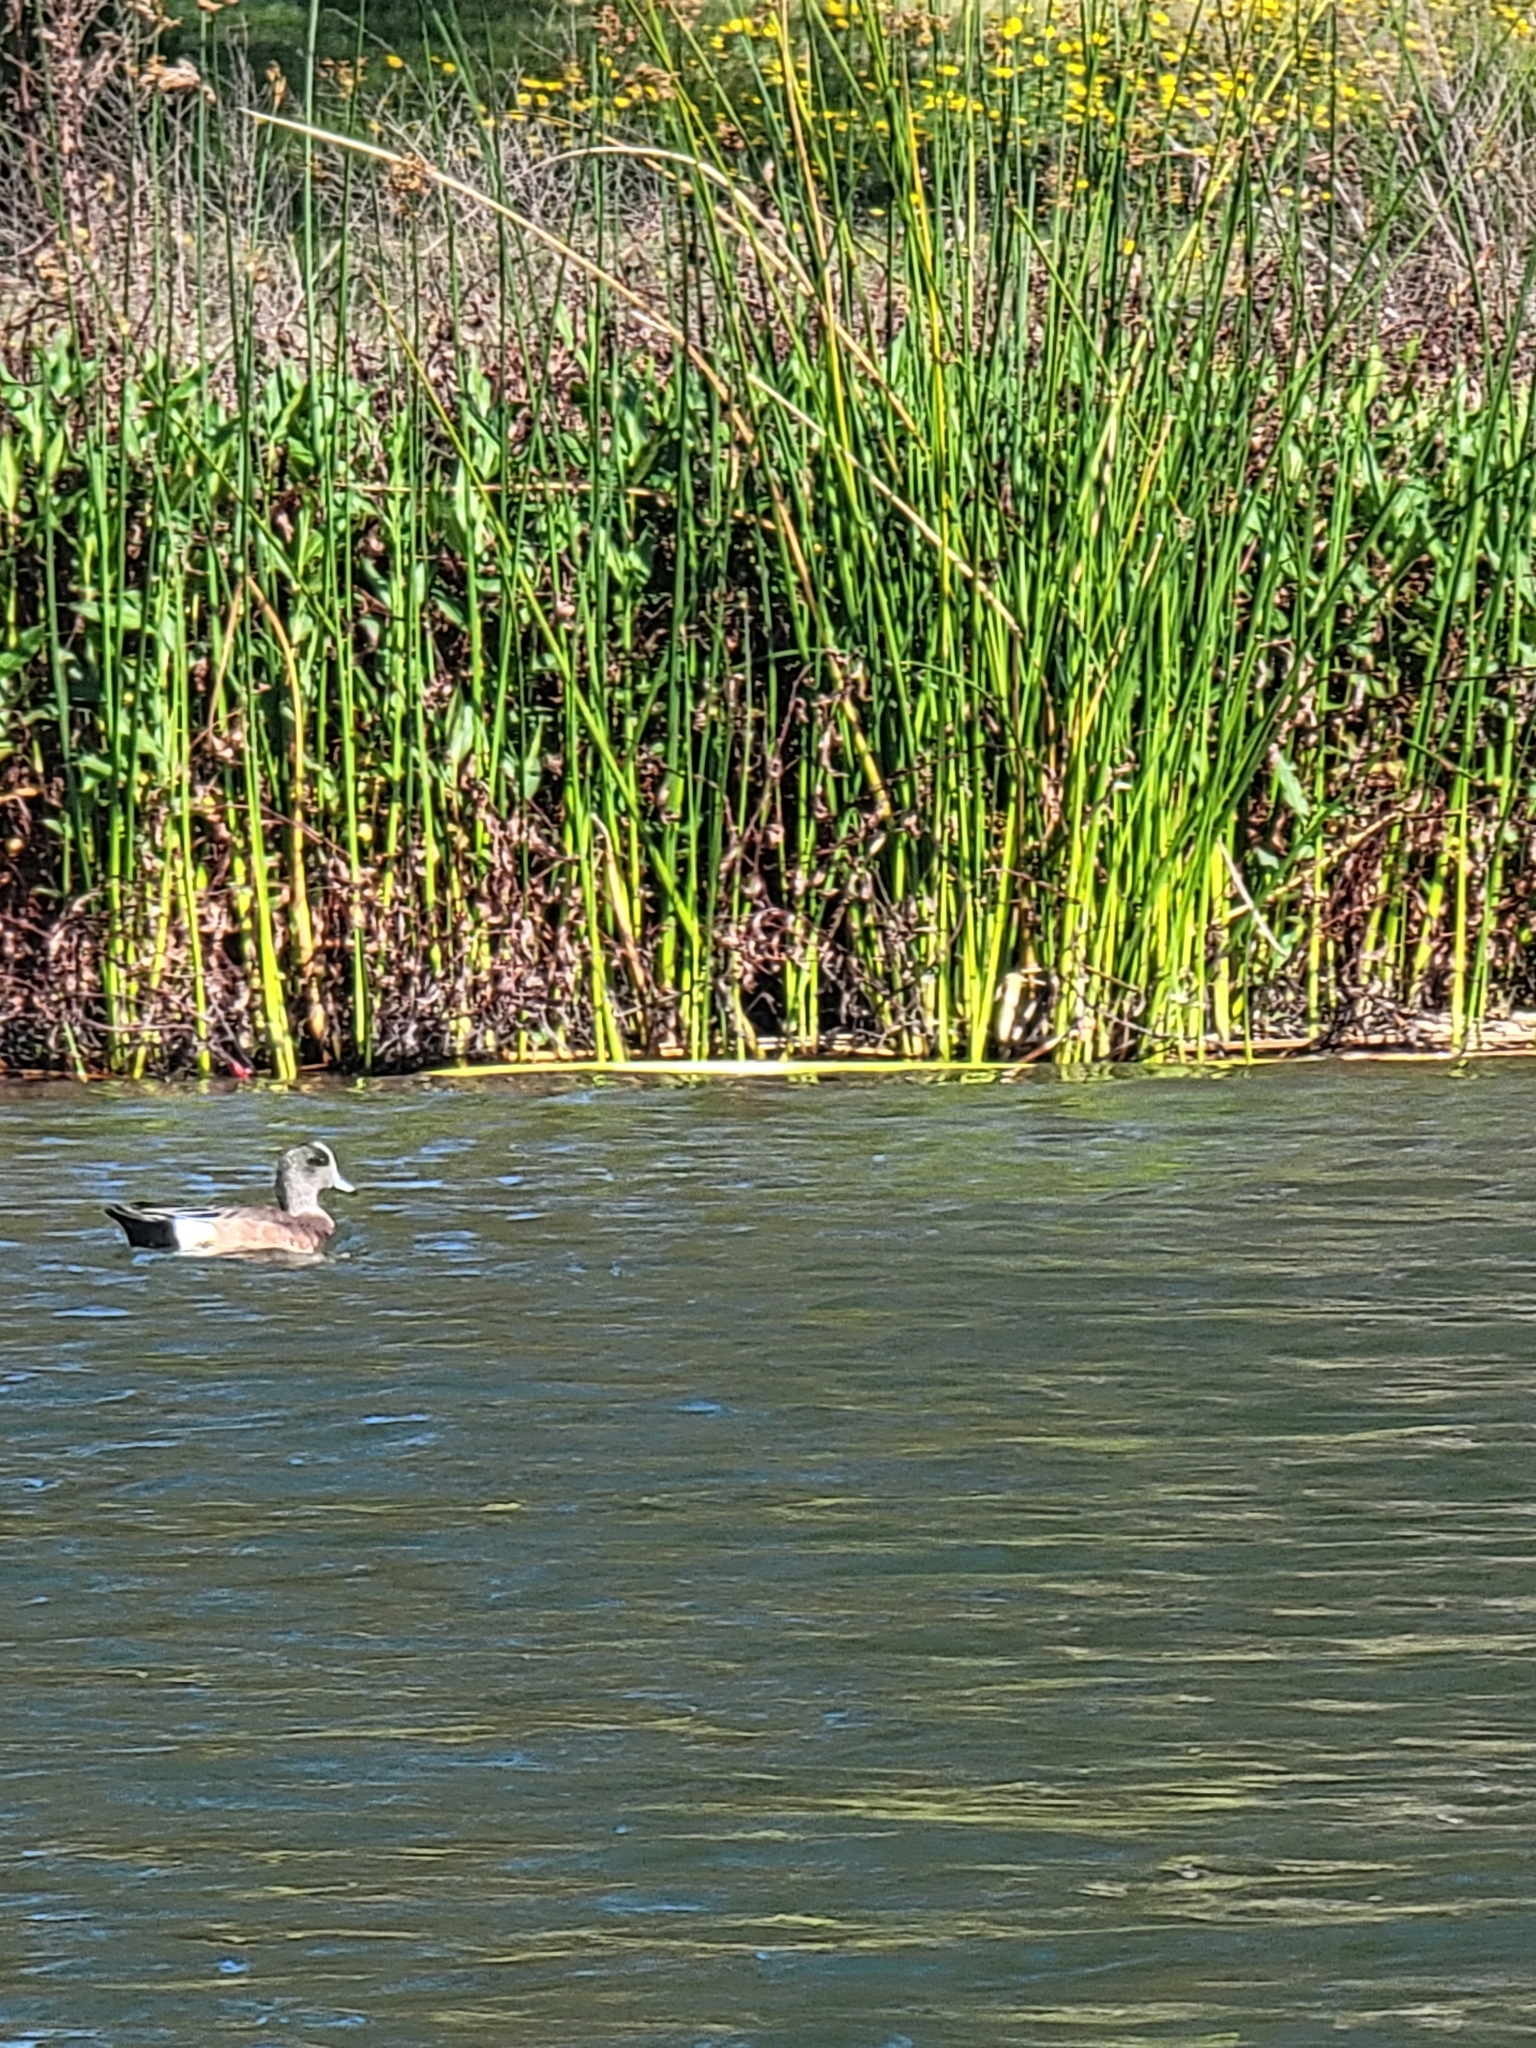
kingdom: Animalia
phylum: Chordata
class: Aves
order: Anseriformes
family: Anatidae
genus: Mareca
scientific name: Mareca americana
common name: American wigeon
